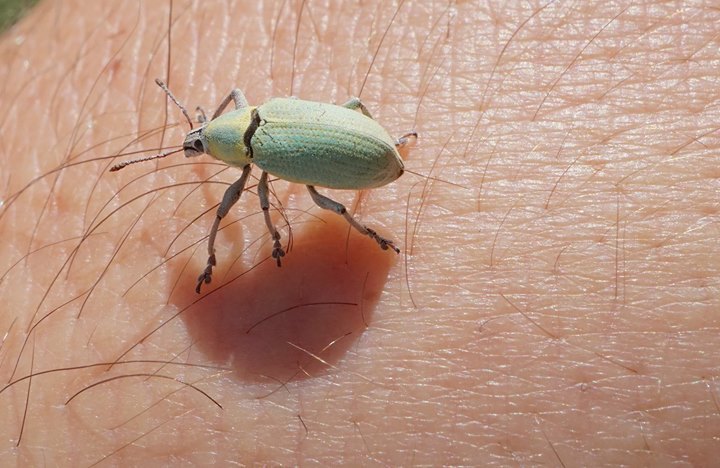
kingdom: Animalia
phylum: Arthropoda
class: Insecta
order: Coleoptera
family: Curculionidae
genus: Pachnaeus
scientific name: Pachnaeus litus
